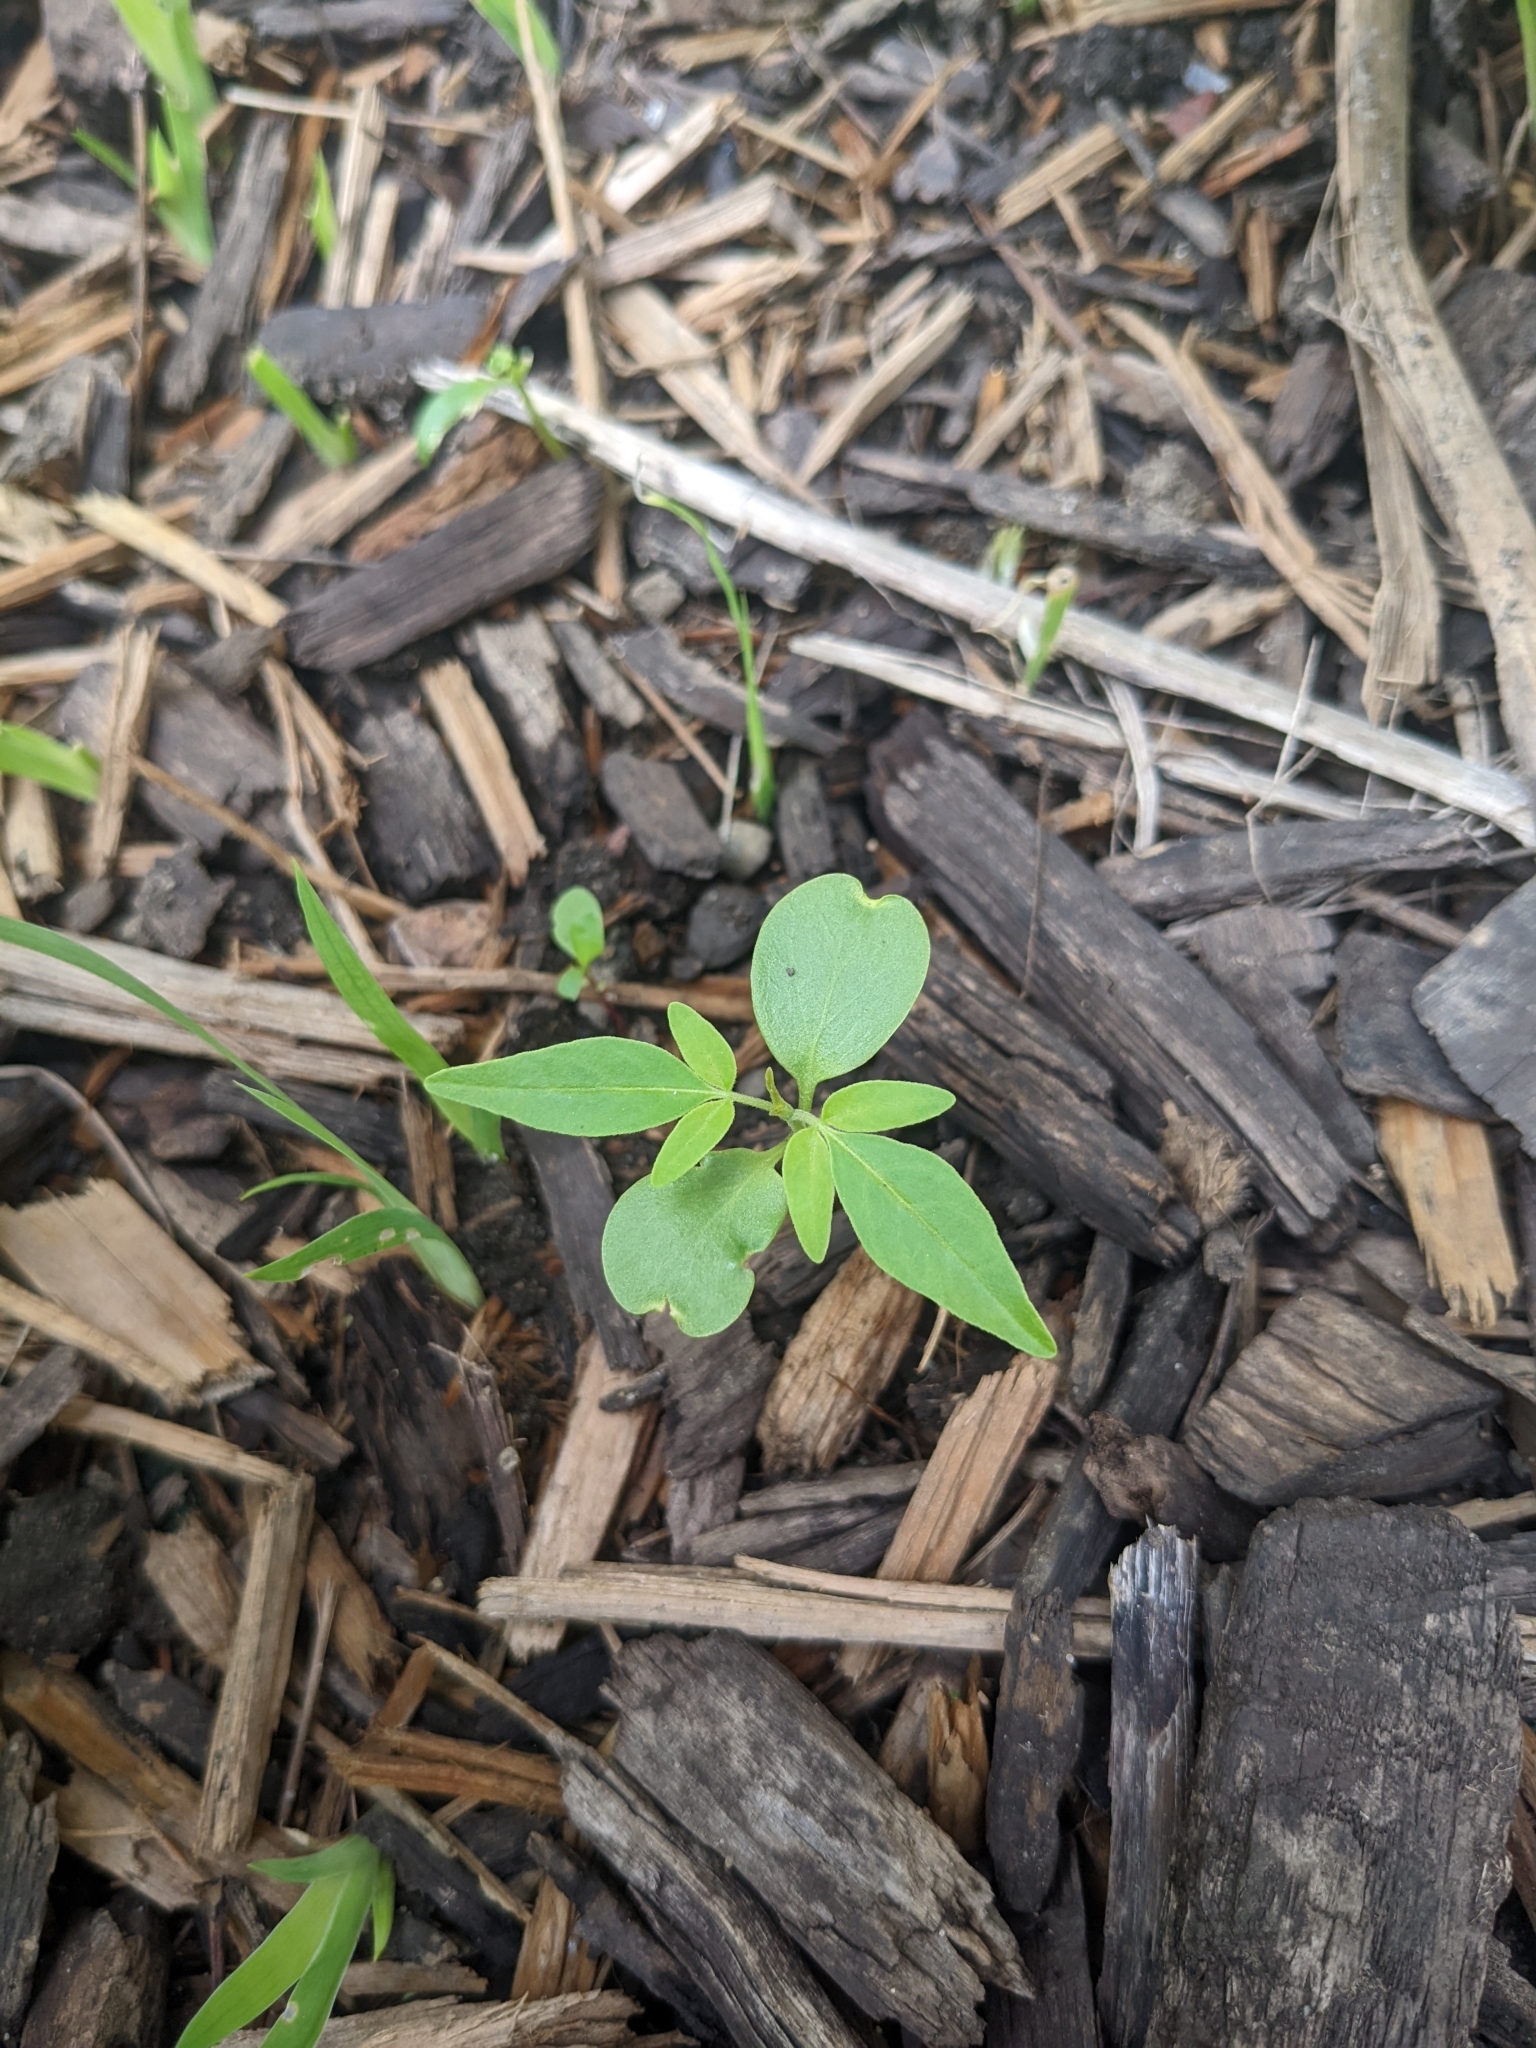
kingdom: Plantae
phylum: Tracheophyta
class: Magnoliopsida
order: Sapindales
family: Simaroubaceae
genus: Ailanthus
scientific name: Ailanthus altissima
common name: Tree-of-heaven
